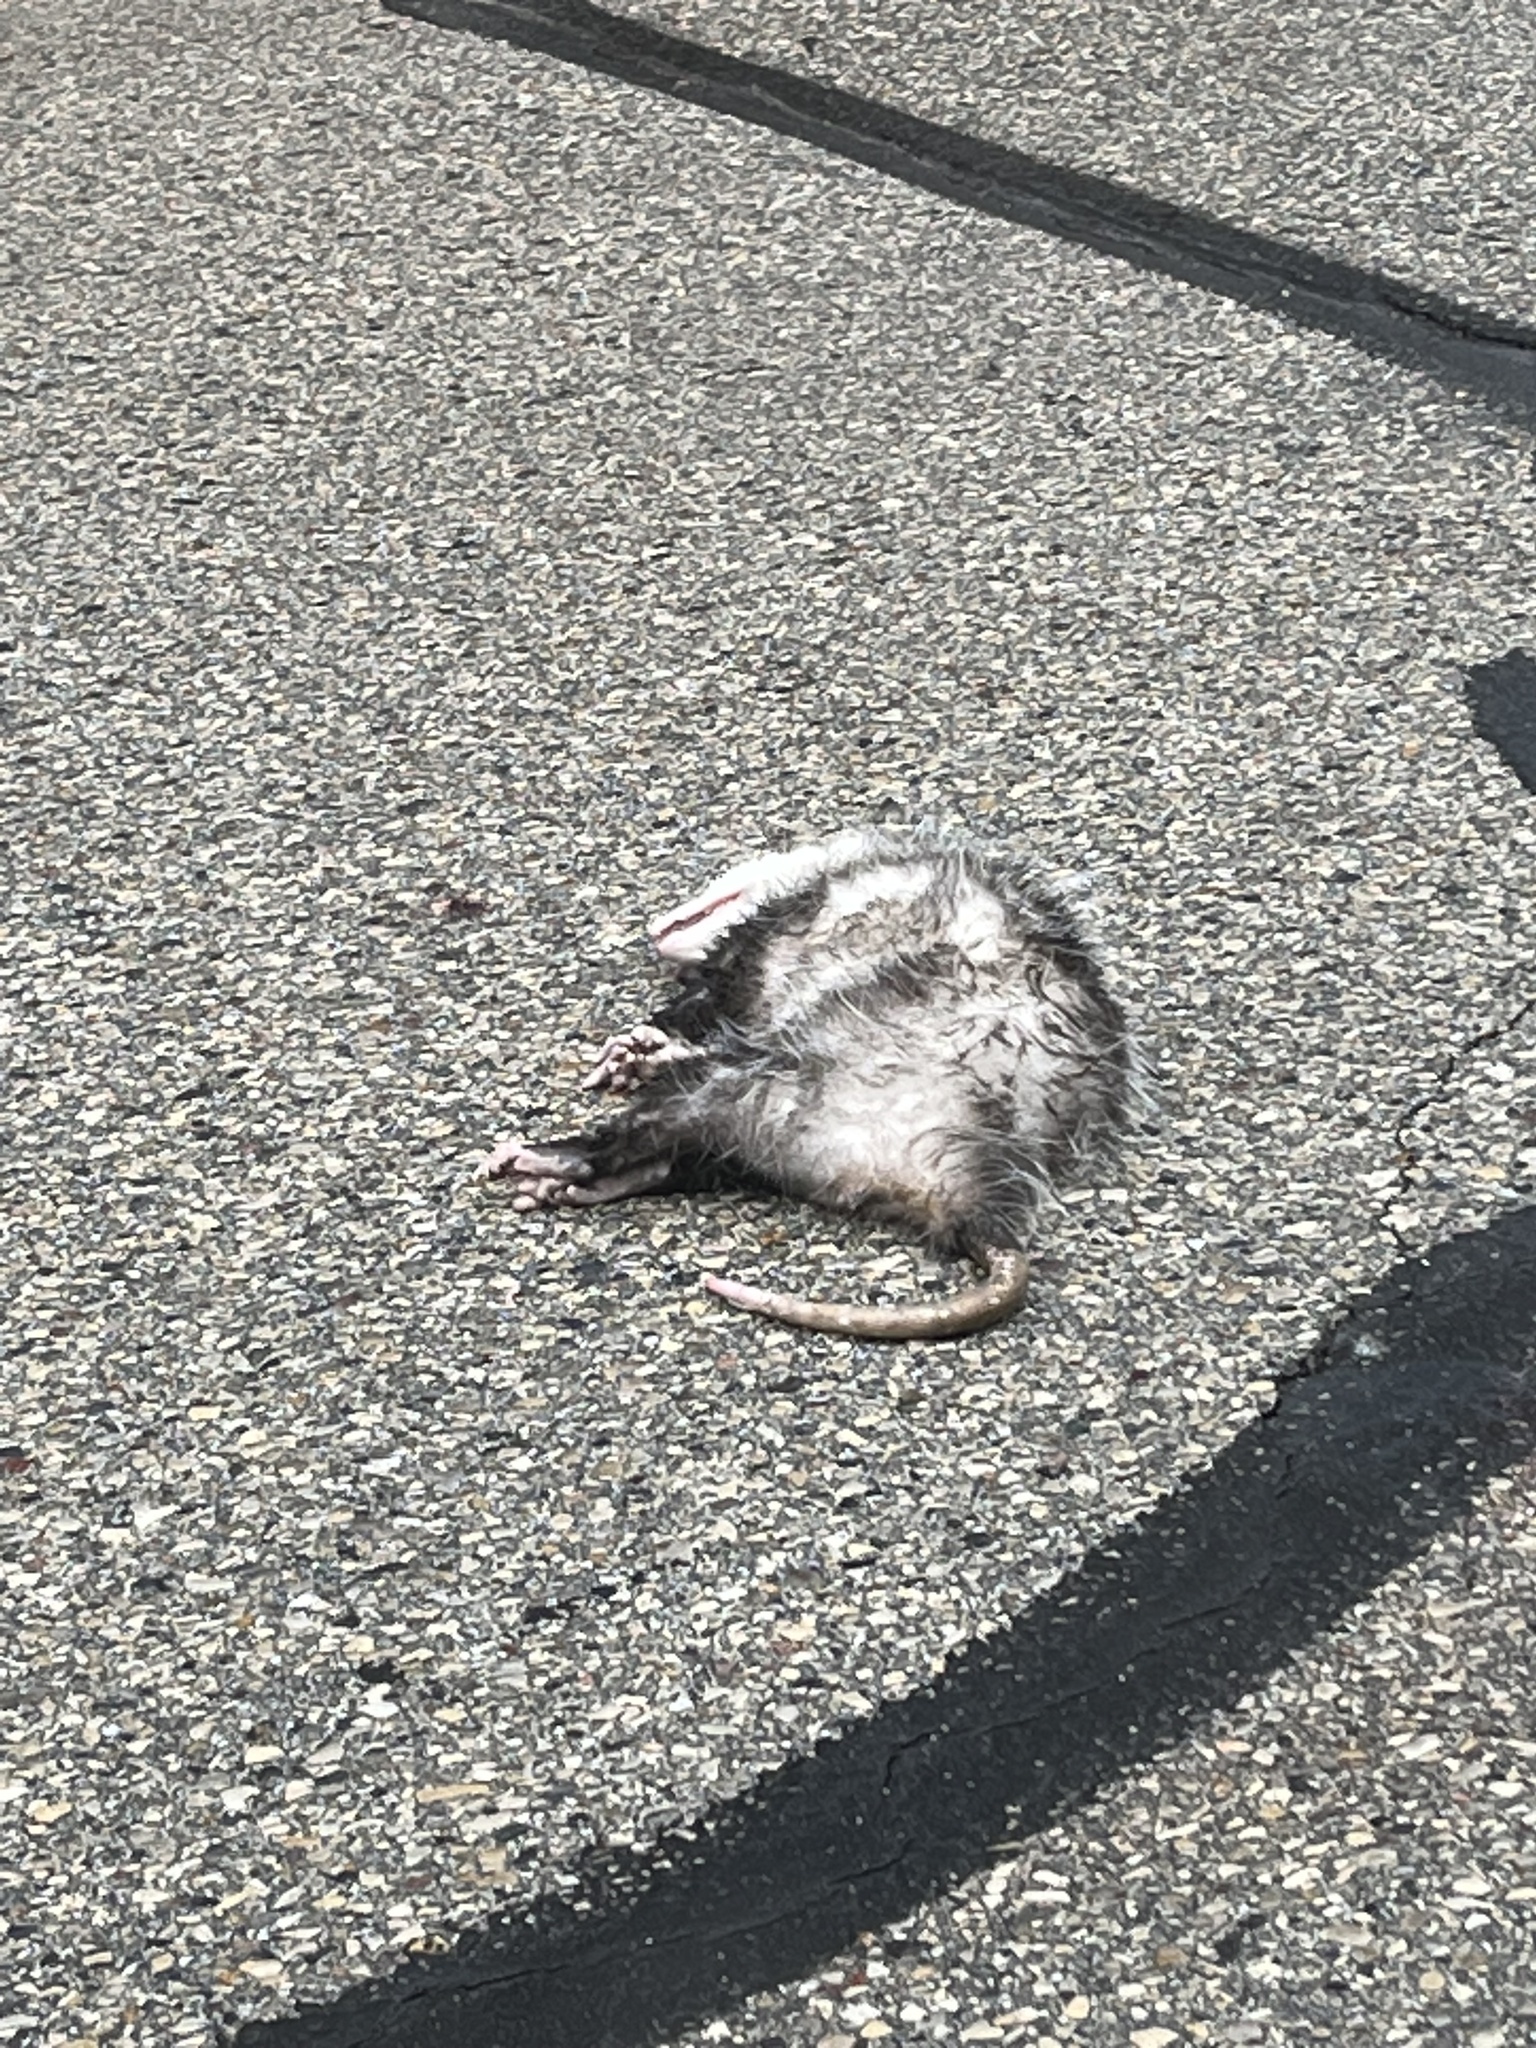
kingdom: Animalia
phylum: Chordata
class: Mammalia
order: Didelphimorphia
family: Didelphidae
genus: Didelphis
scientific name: Didelphis virginiana
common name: Virginia opossum
